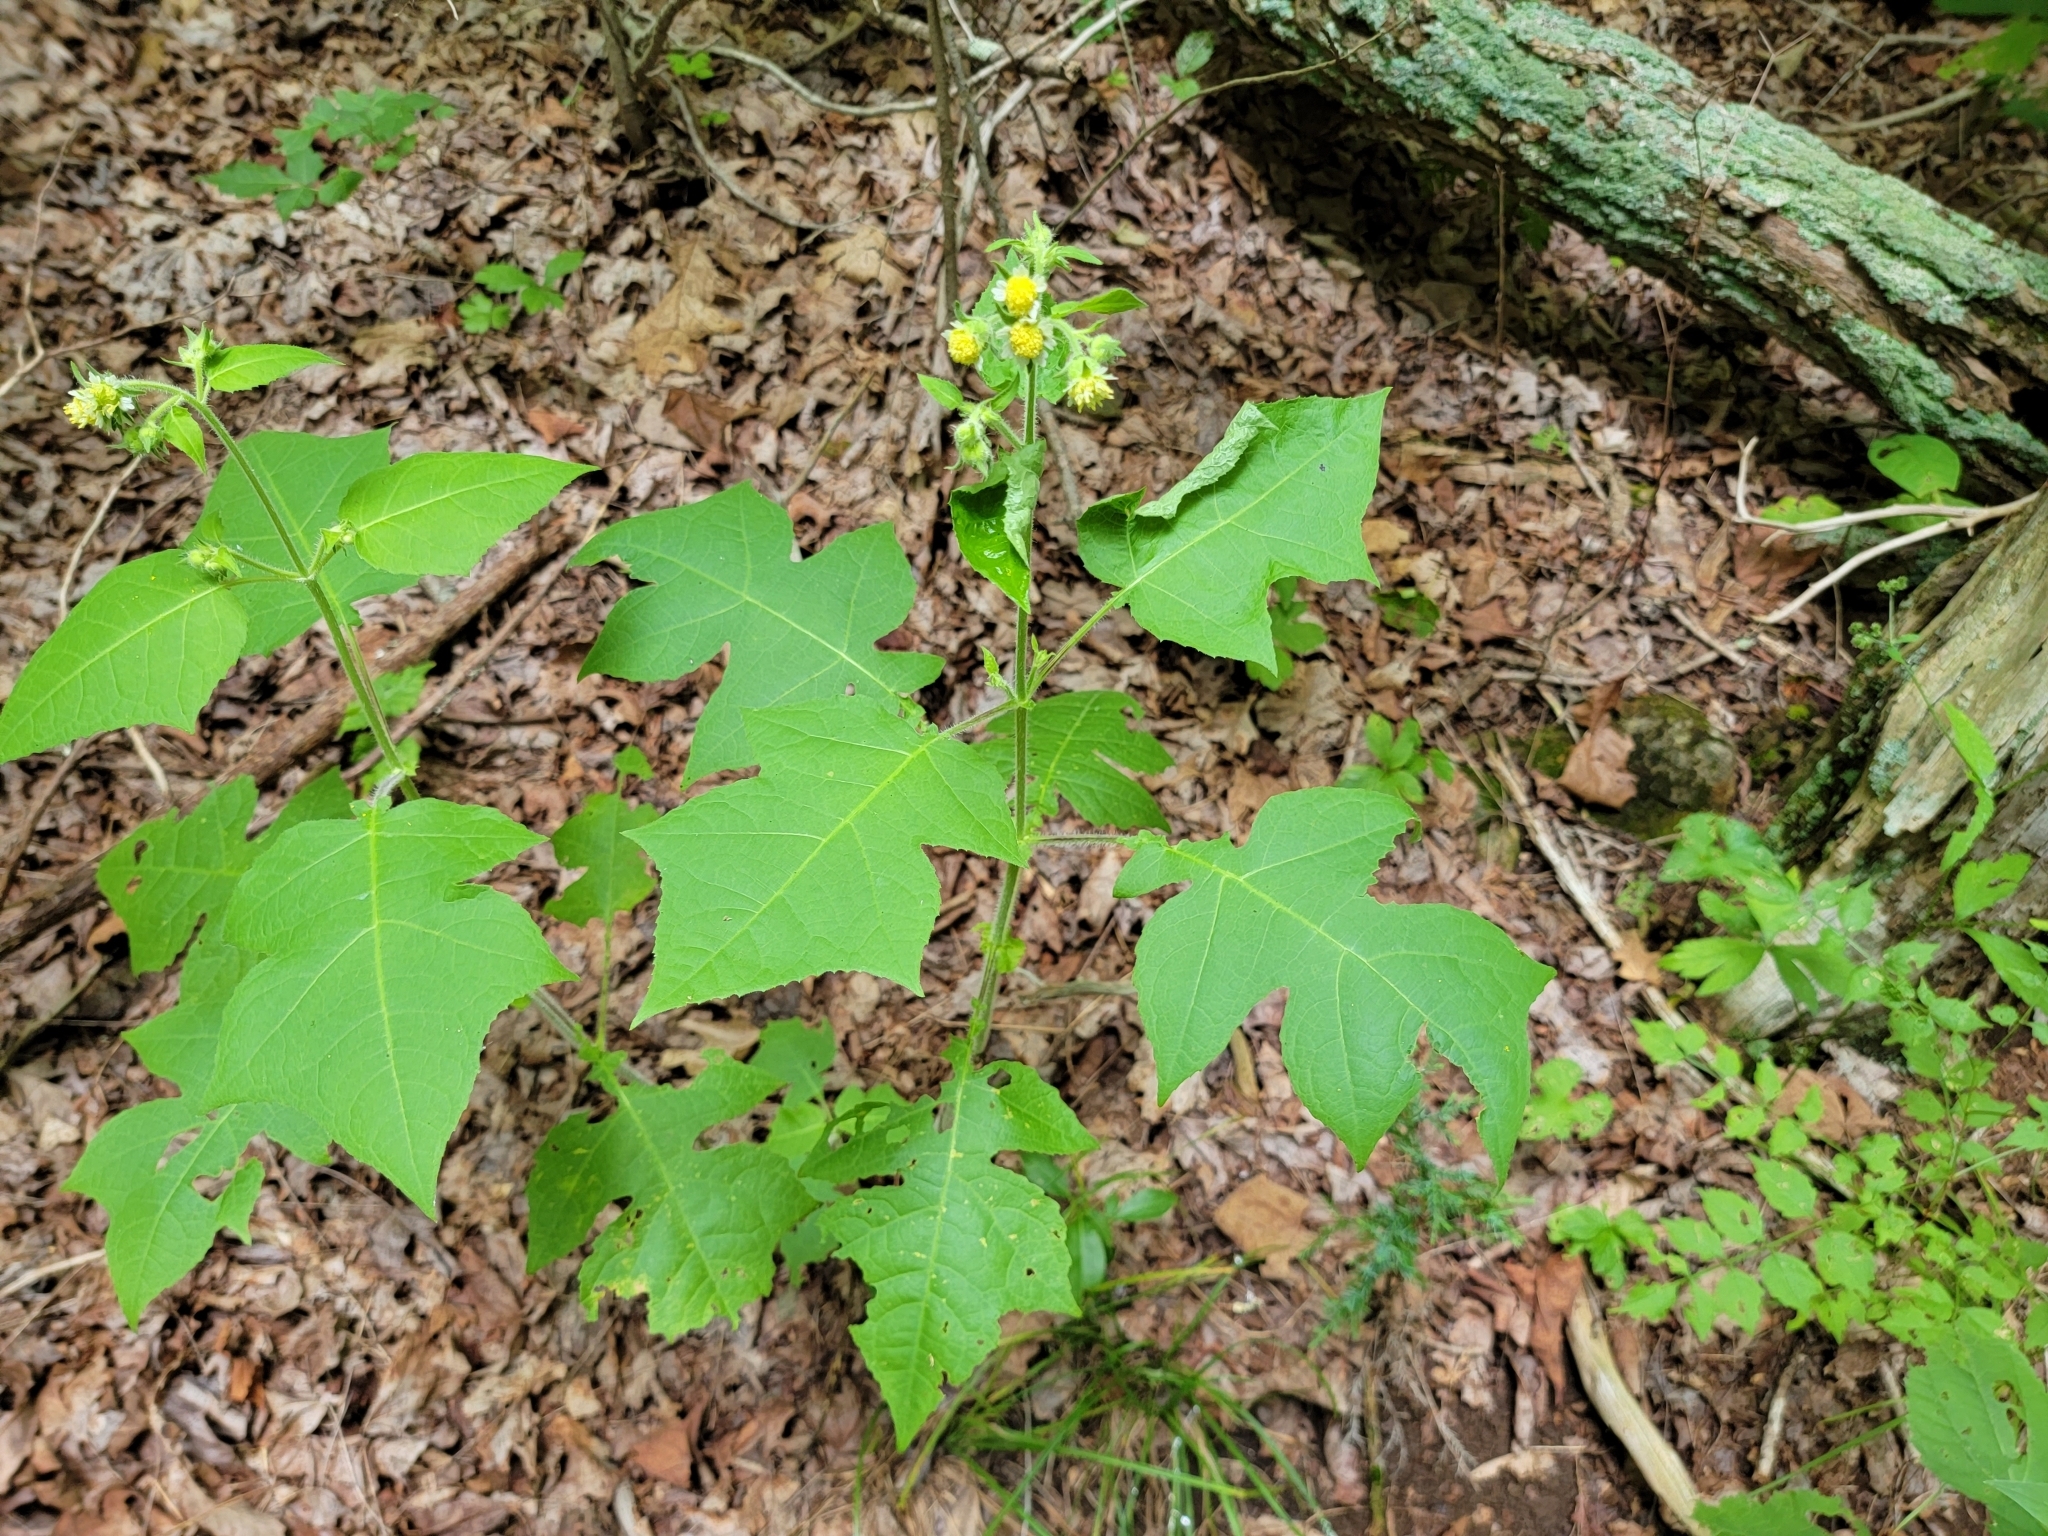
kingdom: Plantae
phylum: Tracheophyta
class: Magnoliopsida
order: Asterales
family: Asteraceae
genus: Polymnia
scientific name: Polymnia canadensis
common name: Pale-flowered leafcup
